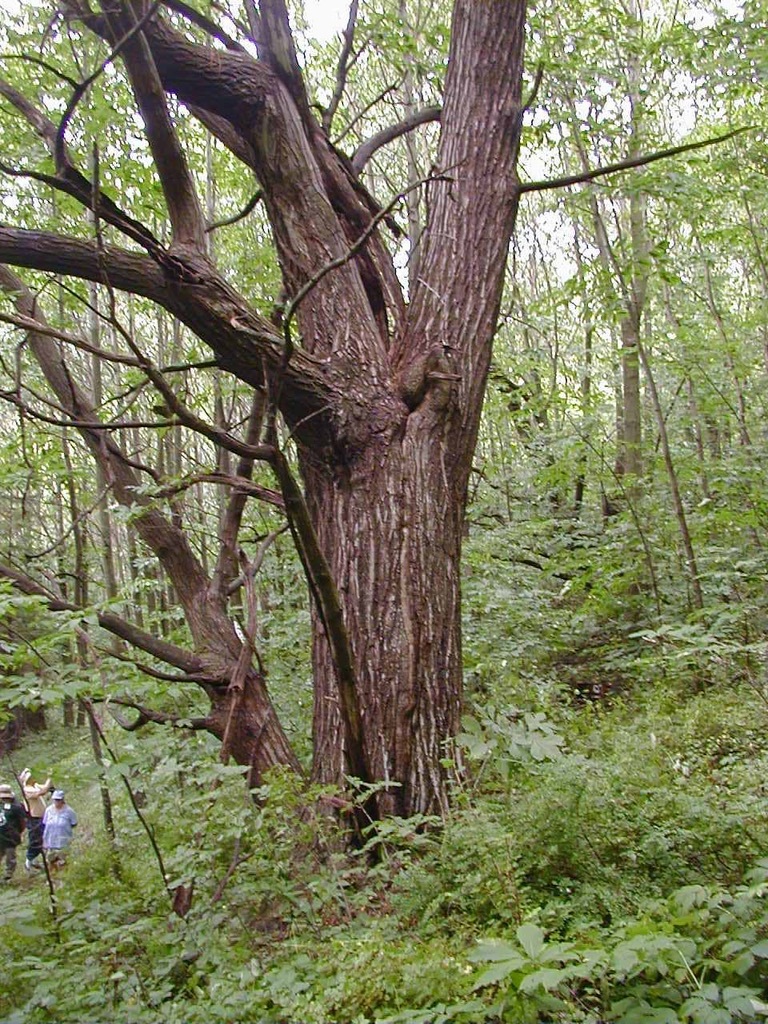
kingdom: Plantae
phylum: Tracheophyta
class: Magnoliopsida
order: Fagales
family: Fagaceae
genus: Castanea
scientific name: Castanea dentata
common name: American chestnut
